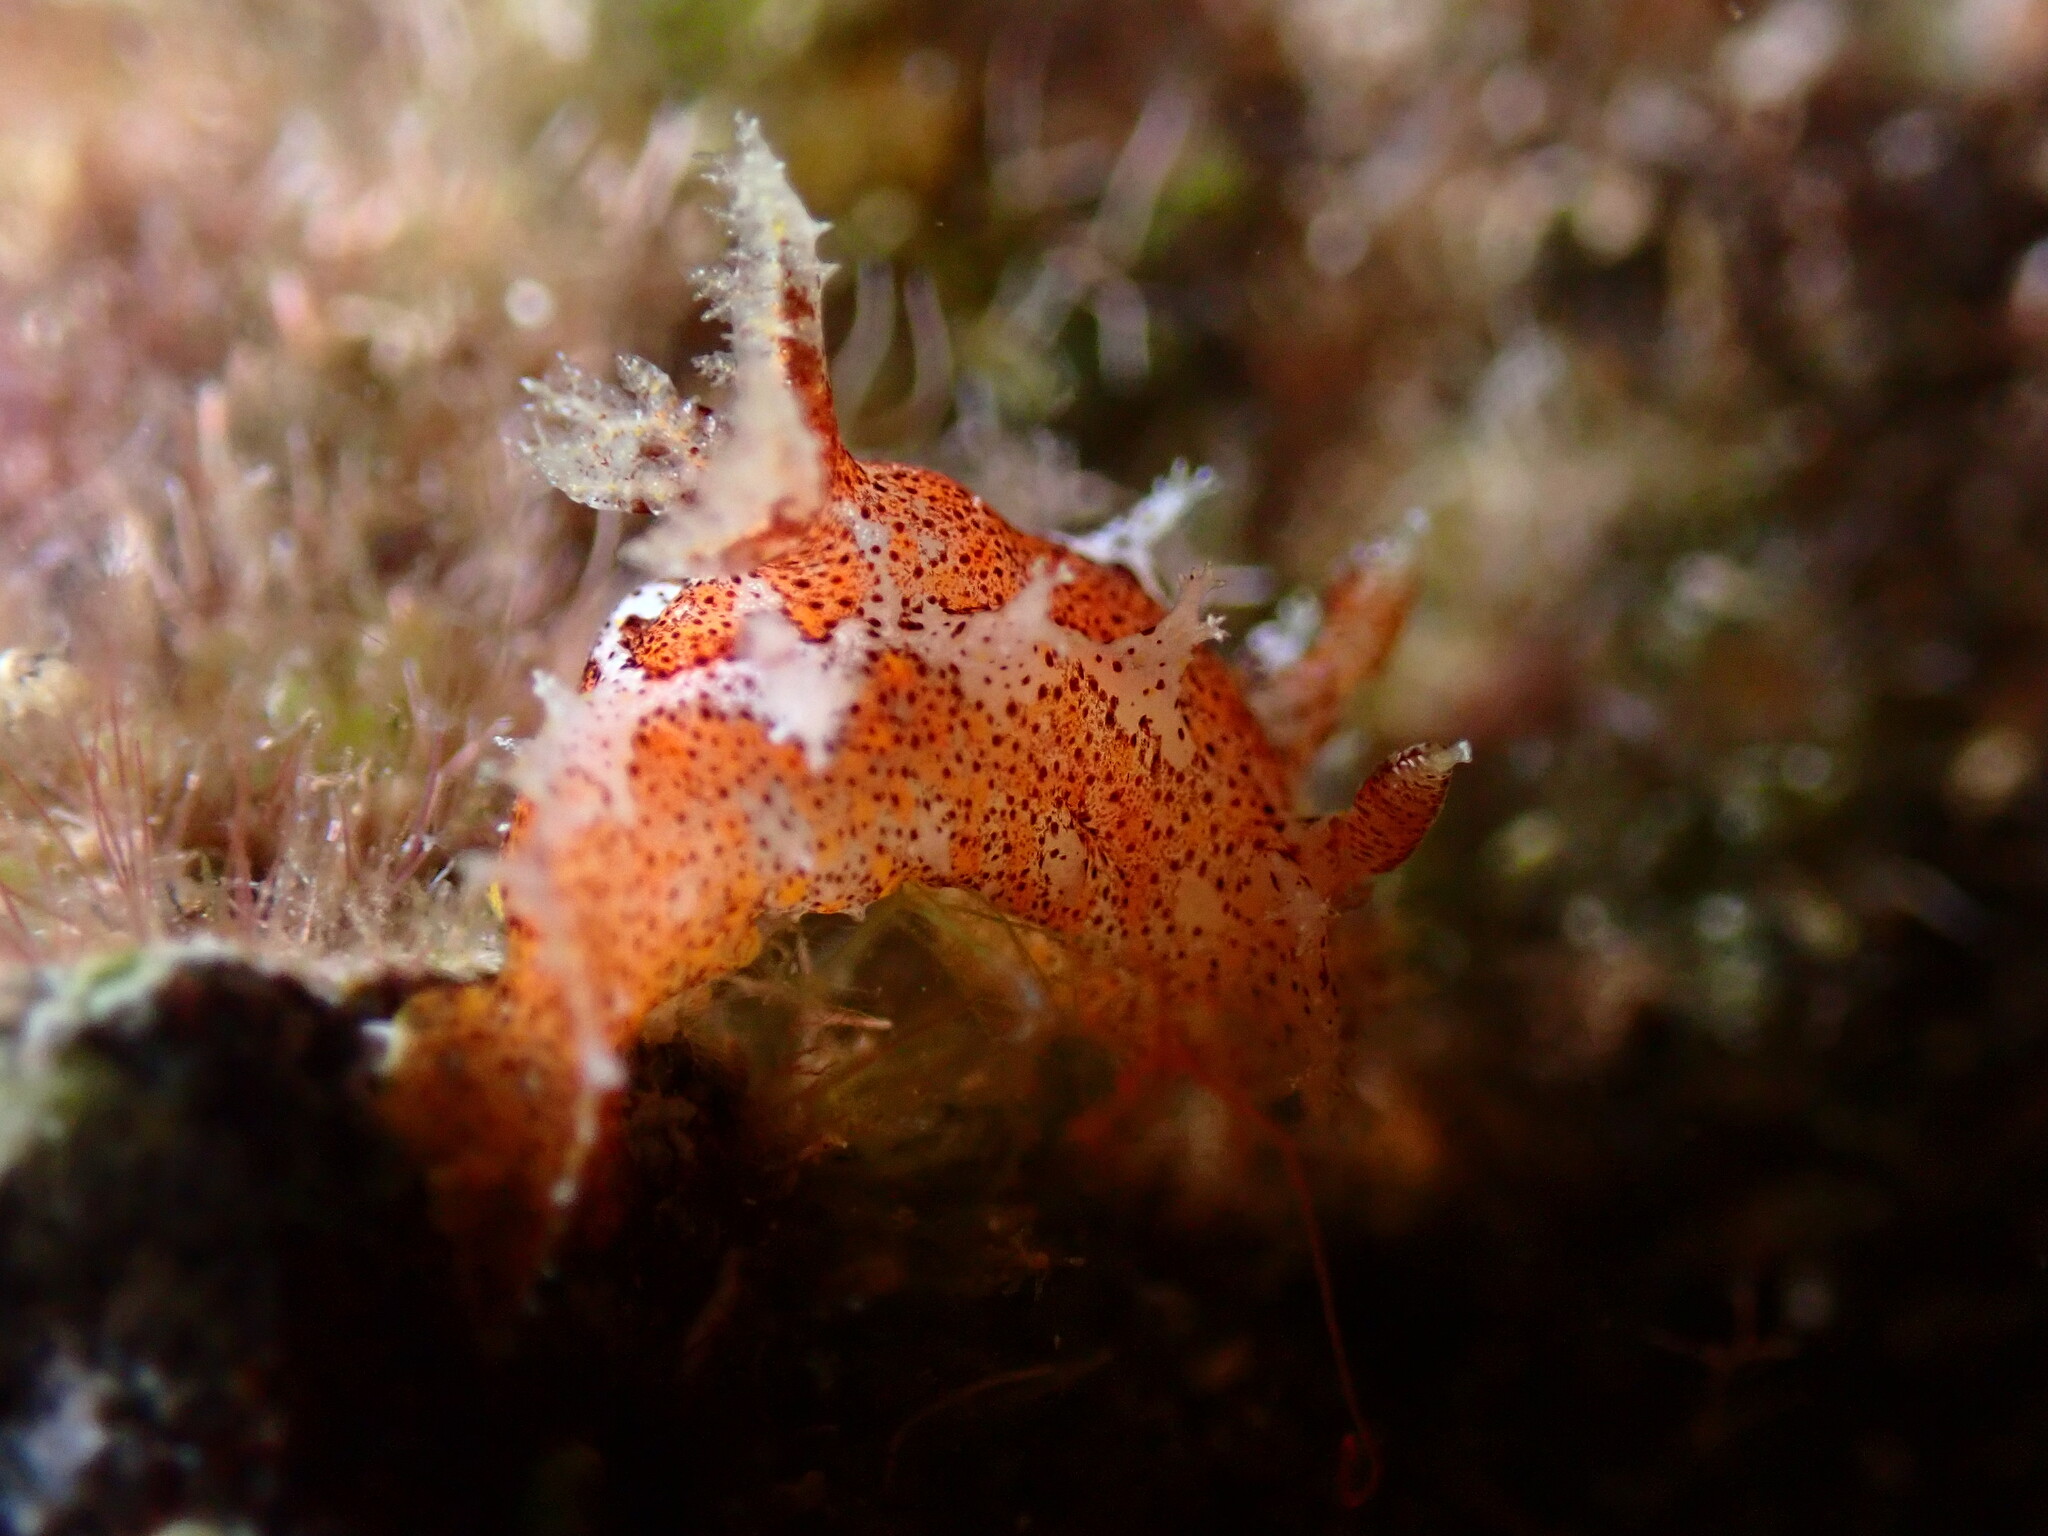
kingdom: Animalia
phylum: Mollusca
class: Gastropoda
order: Nudibranchia
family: Polyceridae
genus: Plocamopherus
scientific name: Plocamopherus maderae
